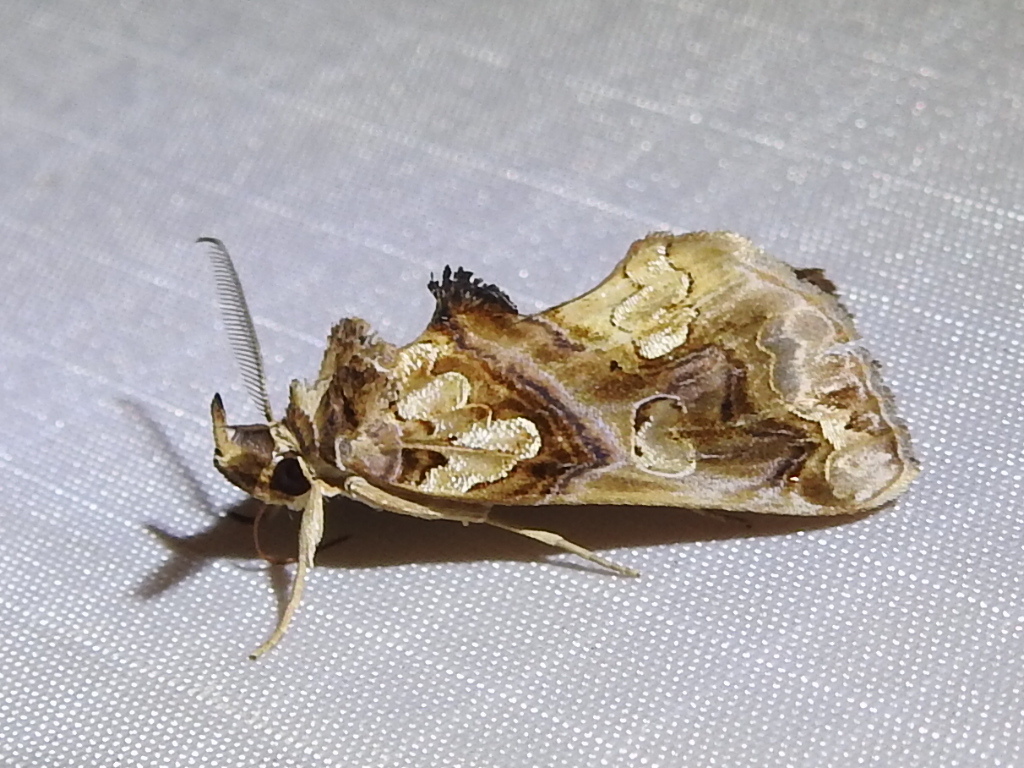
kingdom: Animalia
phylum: Arthropoda
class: Insecta
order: Lepidoptera
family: Erebidae
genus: Plusiodonta
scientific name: Plusiodonta compressipalpis
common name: Moonseed moth
